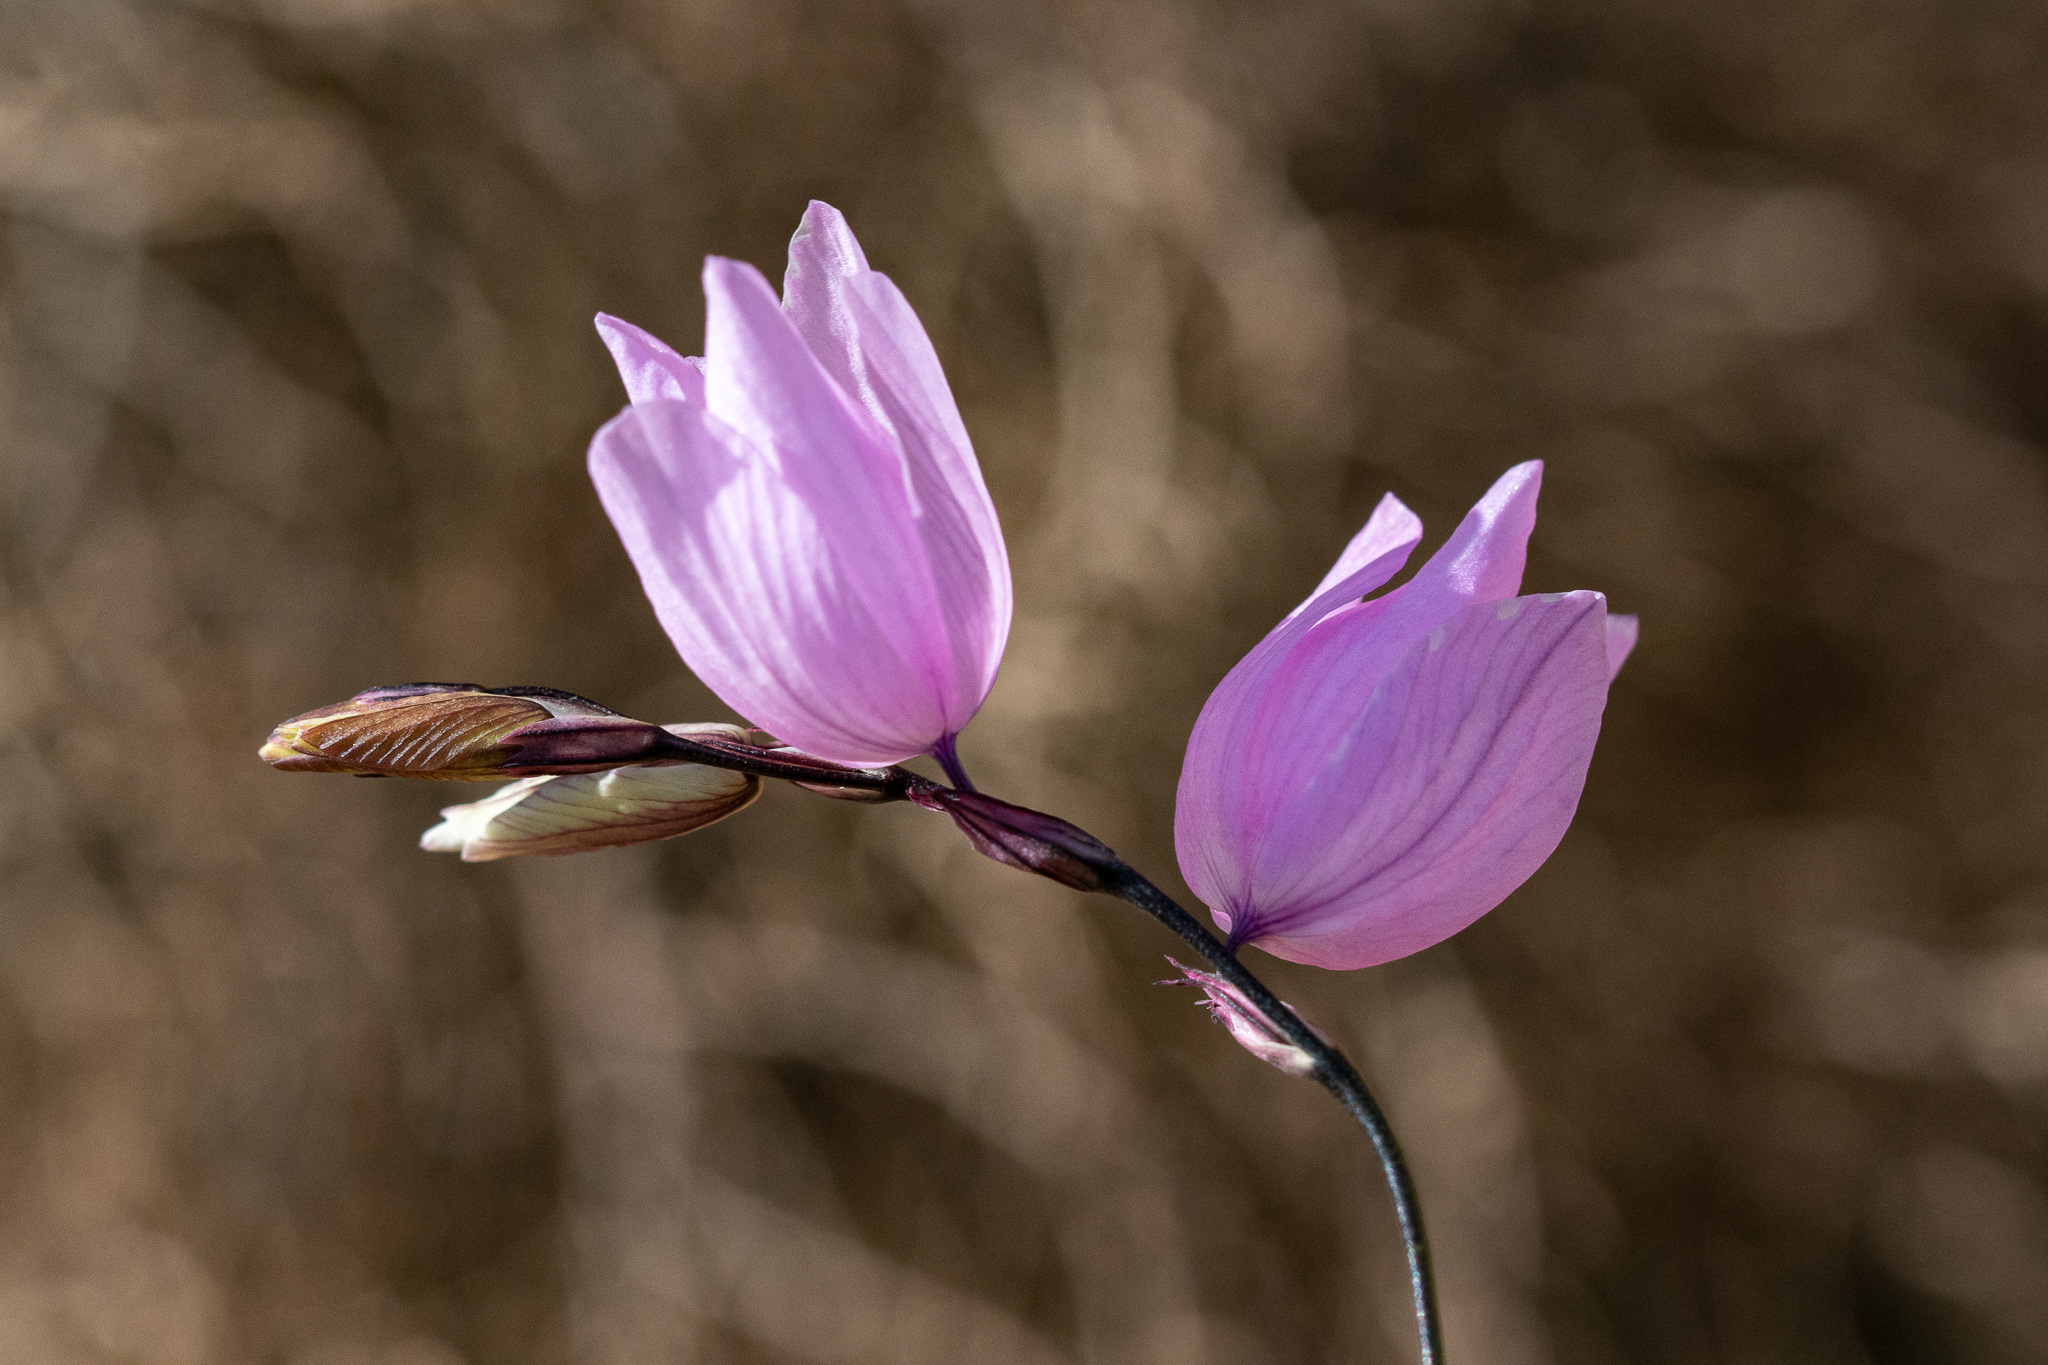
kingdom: Plantae
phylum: Tracheophyta
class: Liliopsida
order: Asparagales
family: Iridaceae
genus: Ixia
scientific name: Ixia micrandra
